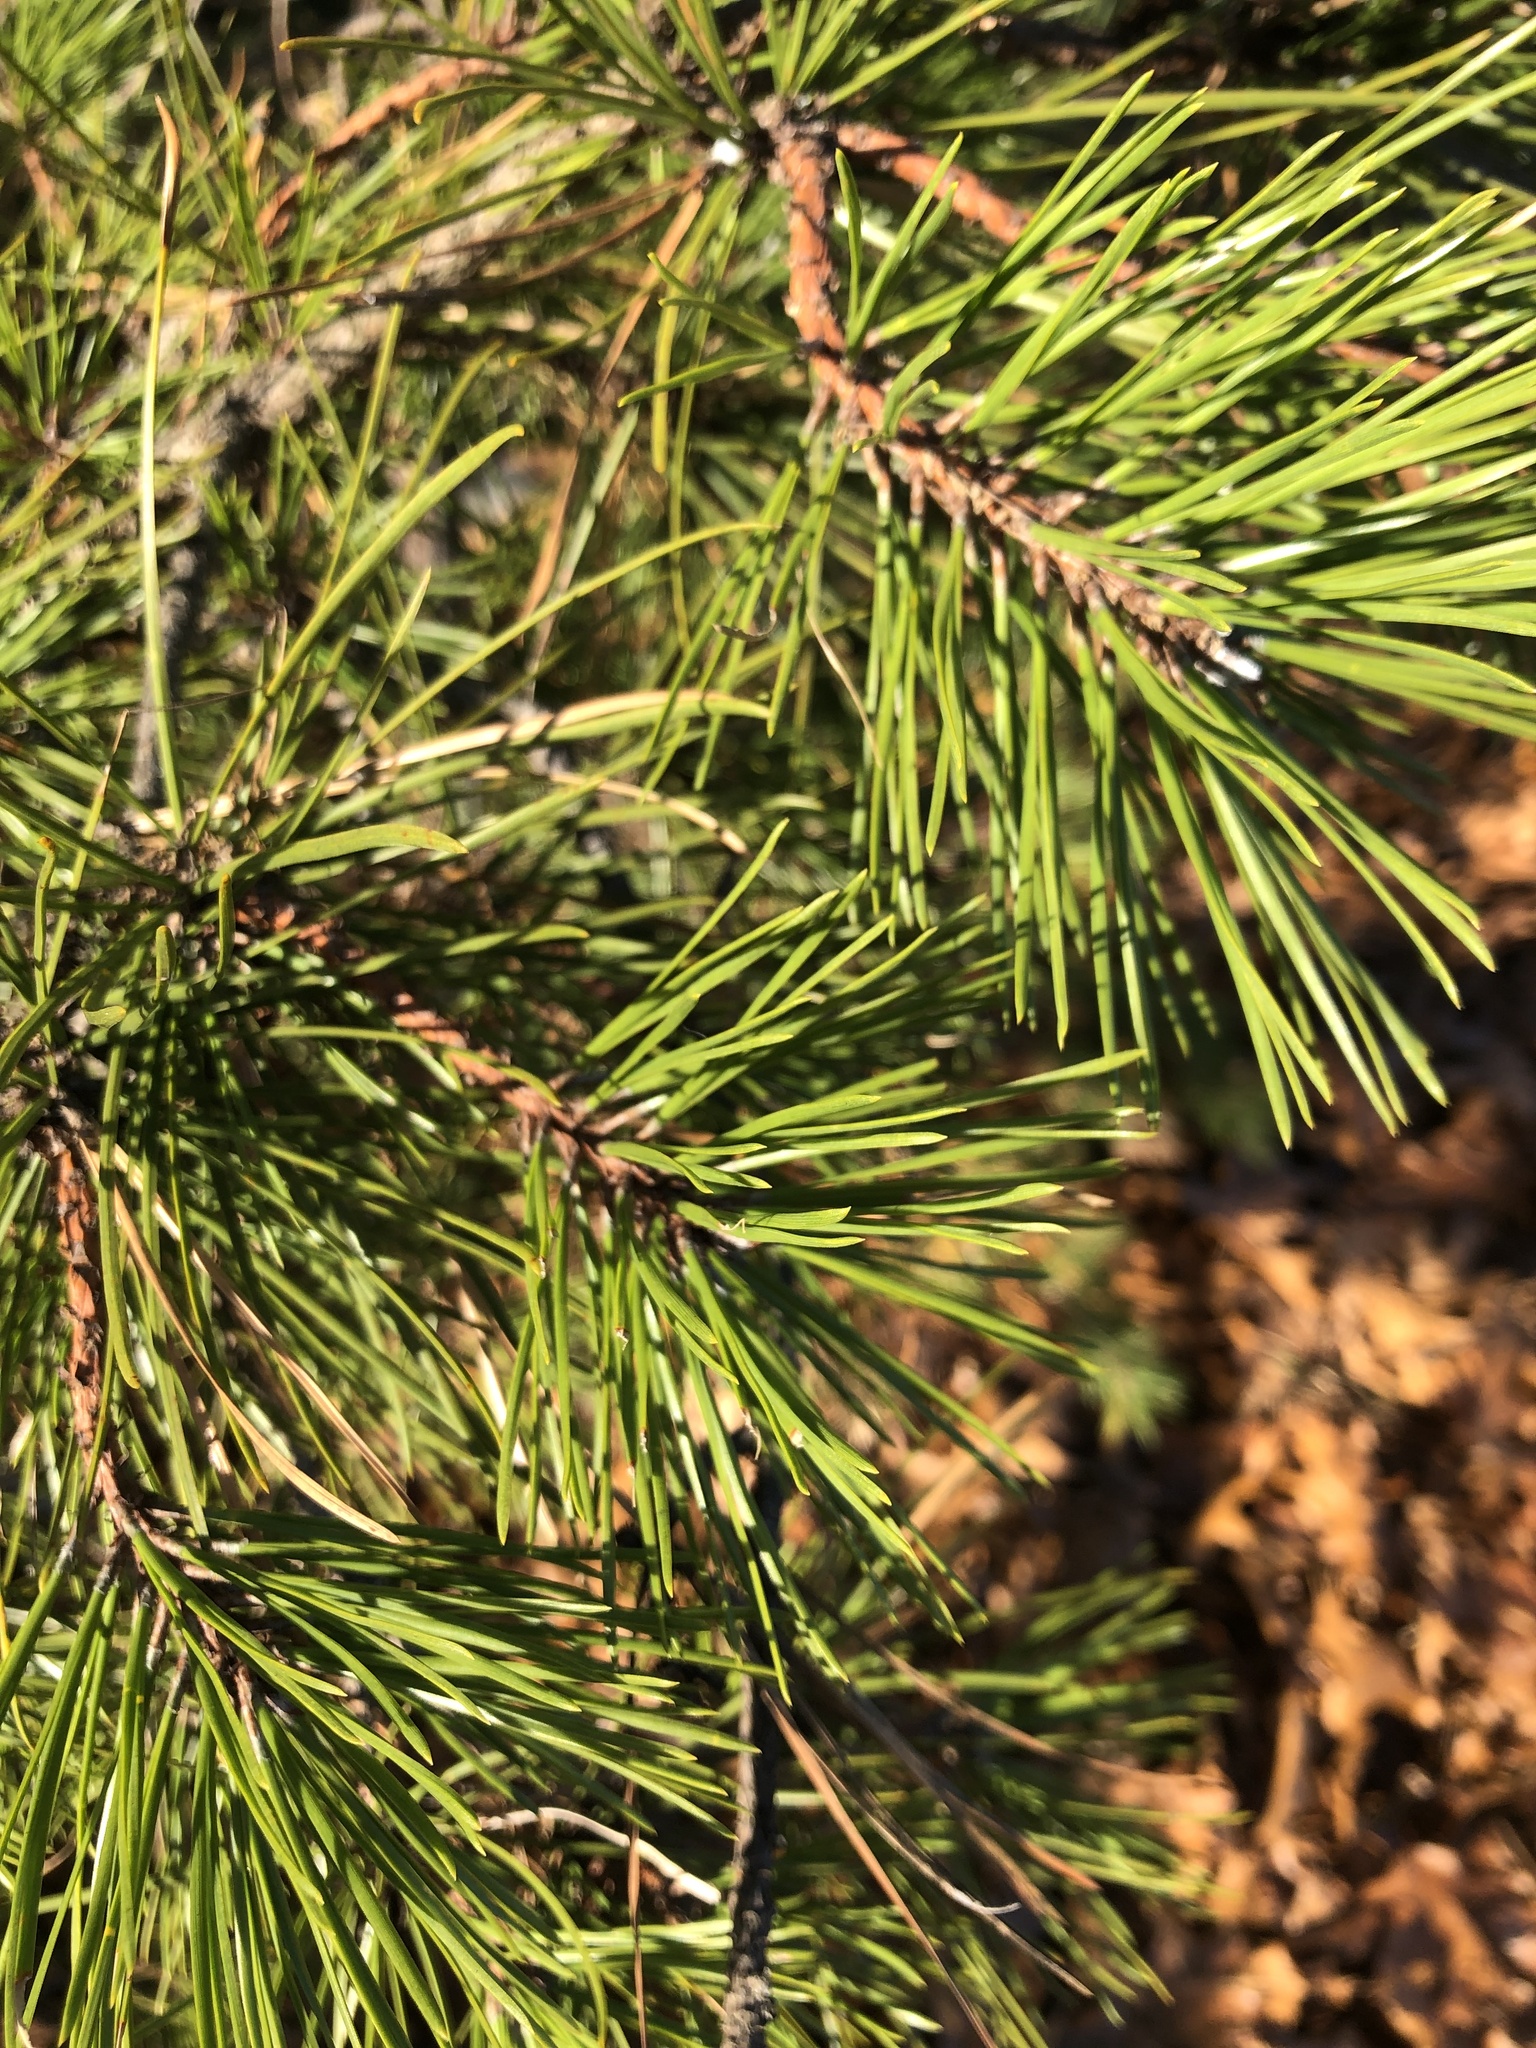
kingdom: Plantae
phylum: Tracheophyta
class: Pinopsida
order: Pinales
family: Pinaceae
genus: Pinus
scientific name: Pinus rigida
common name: Pitch pine
